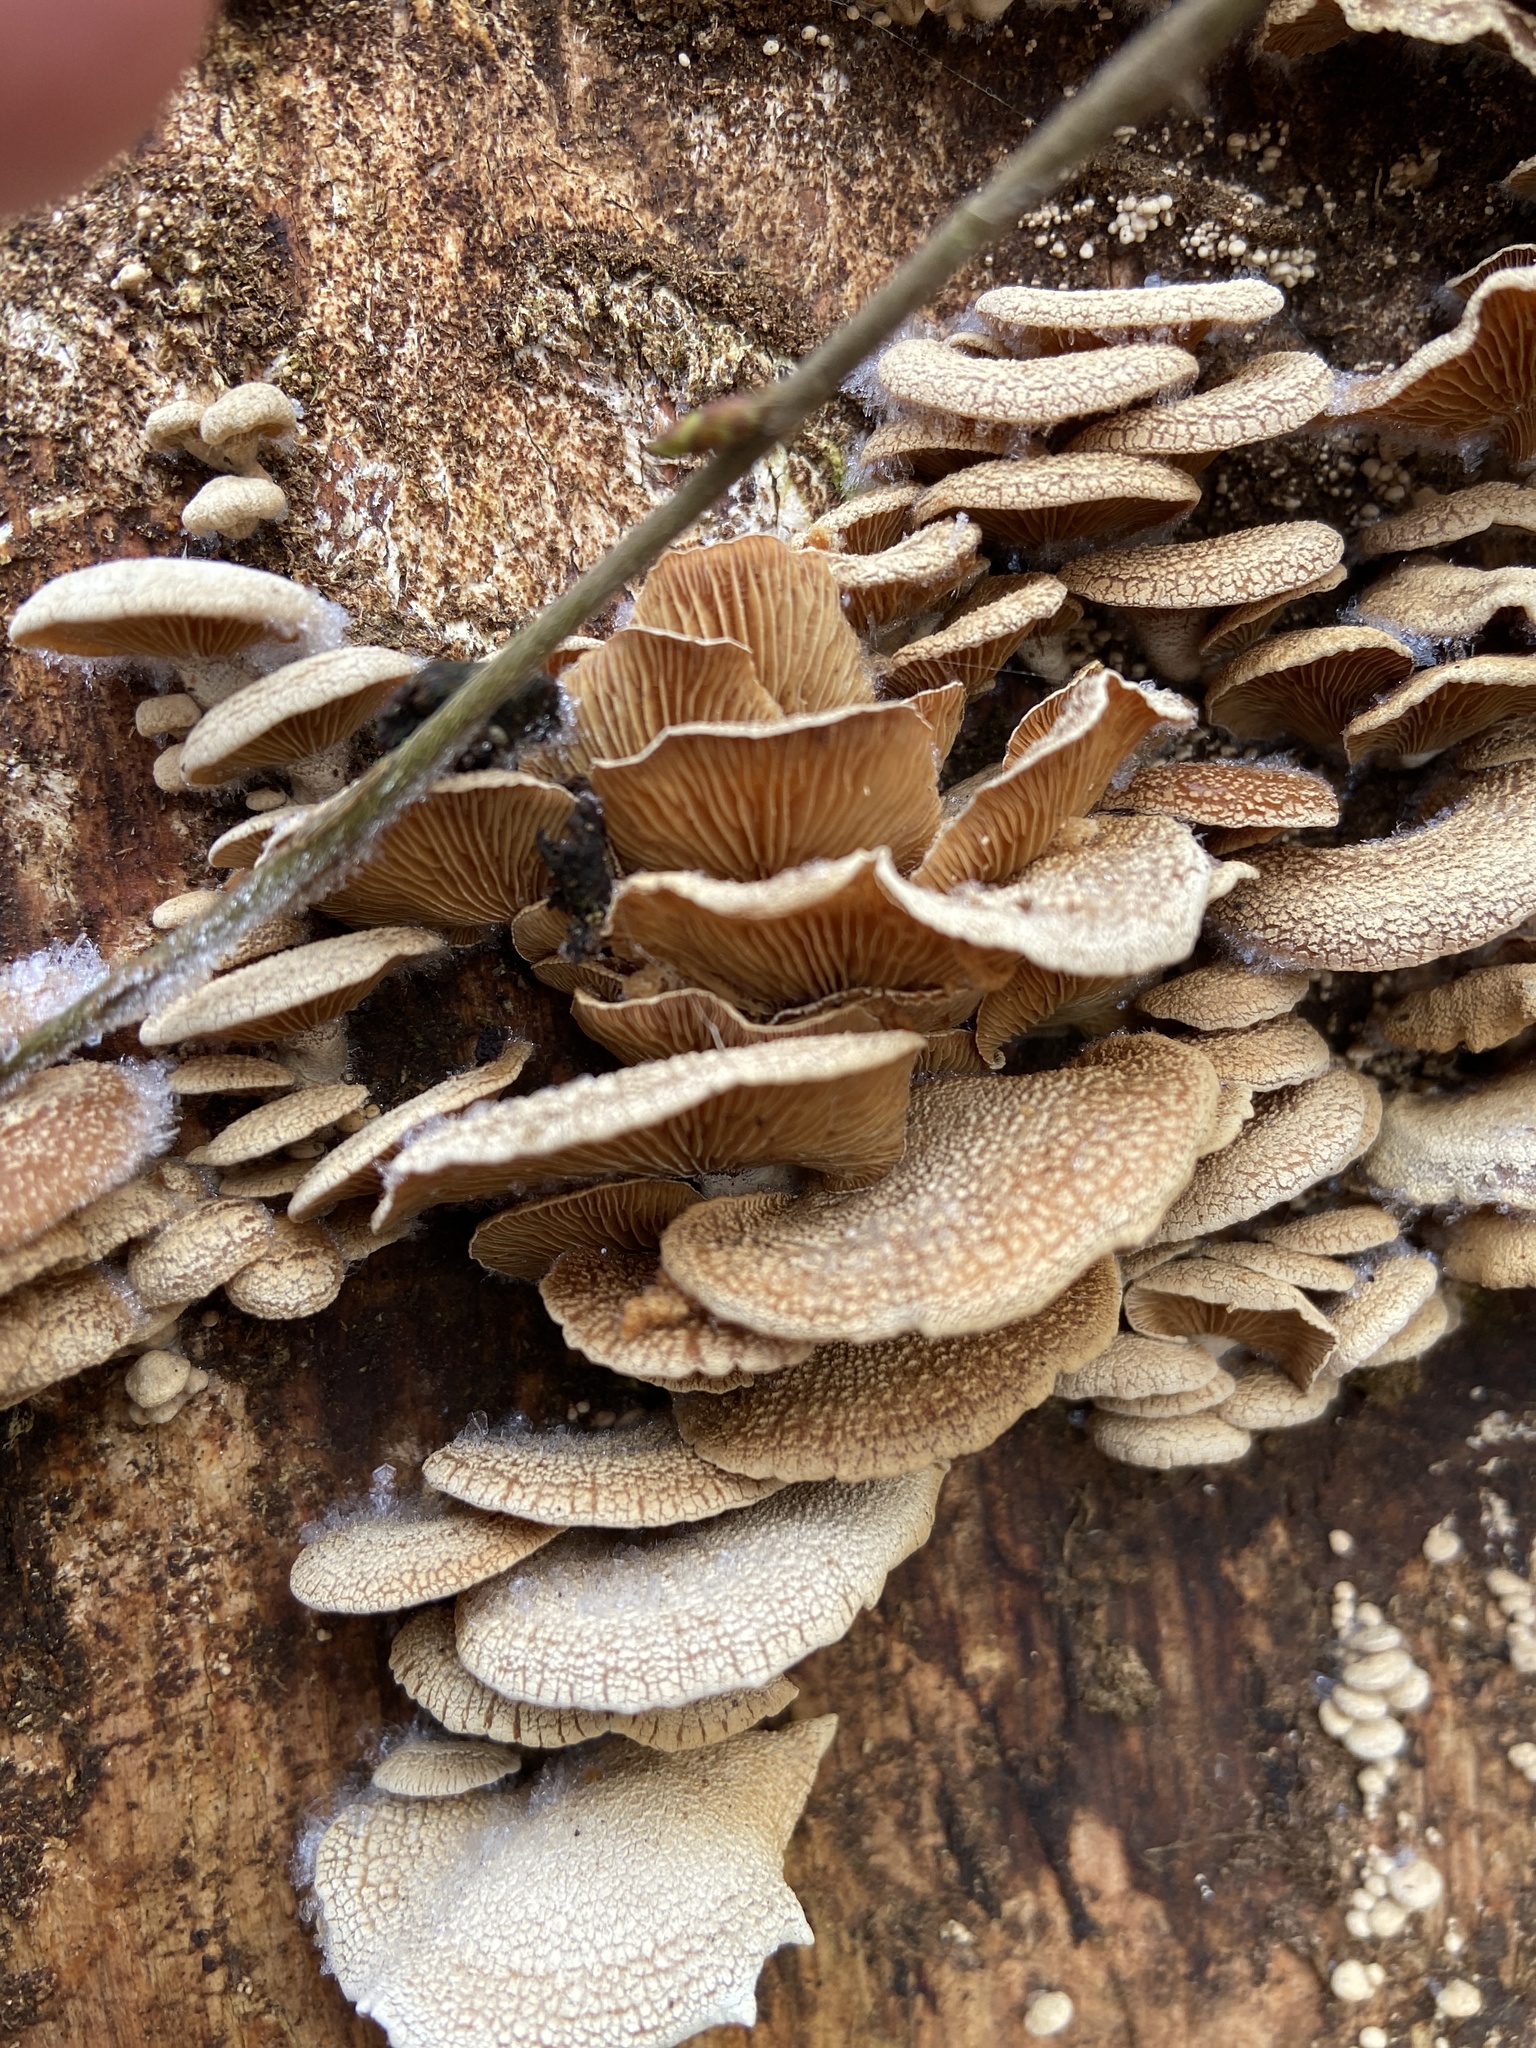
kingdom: Fungi
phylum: Basidiomycota
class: Agaricomycetes
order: Agaricales
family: Mycenaceae
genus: Panellus
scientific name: Panellus stipticus
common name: Bitter oysterling
